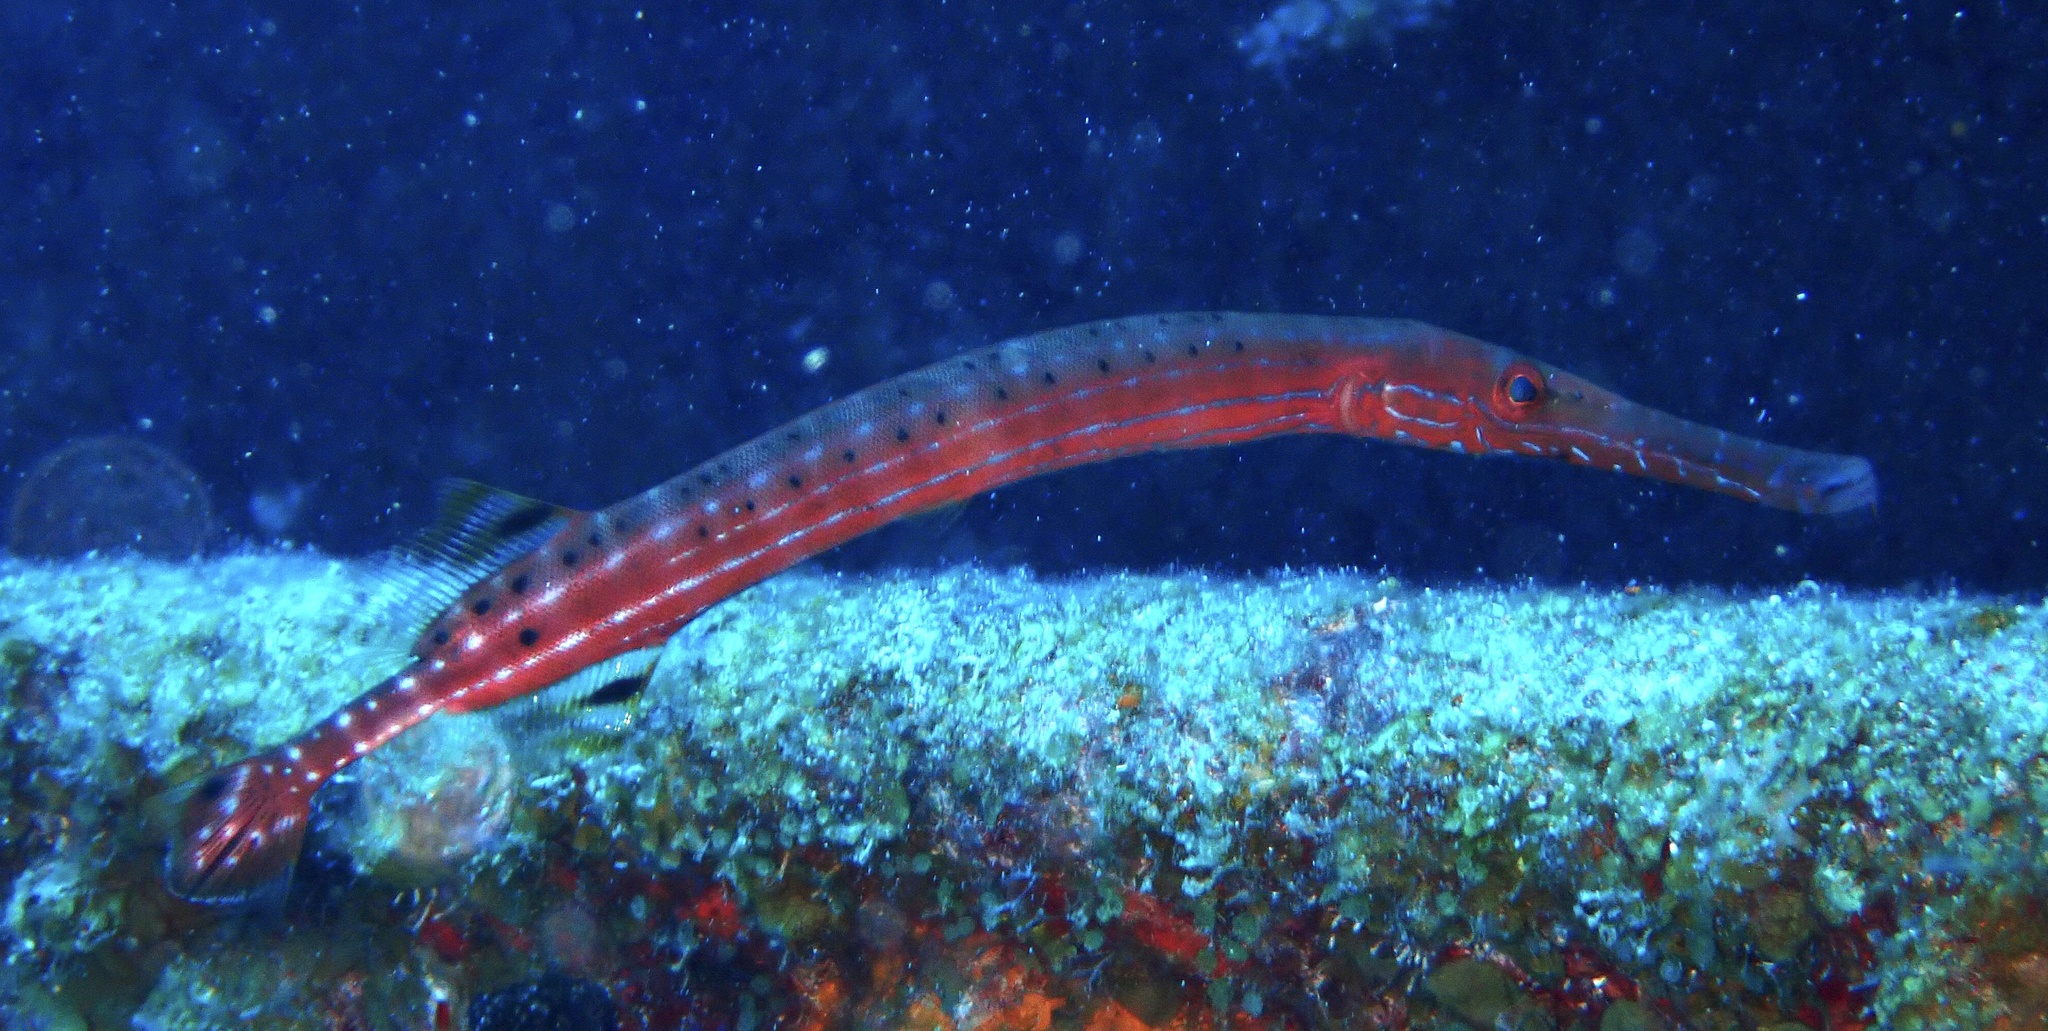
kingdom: Animalia
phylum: Chordata
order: Syngnathiformes
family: Aulostomidae
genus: Aulostomus
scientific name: Aulostomus maculatus
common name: West atlantic trumpetfish
